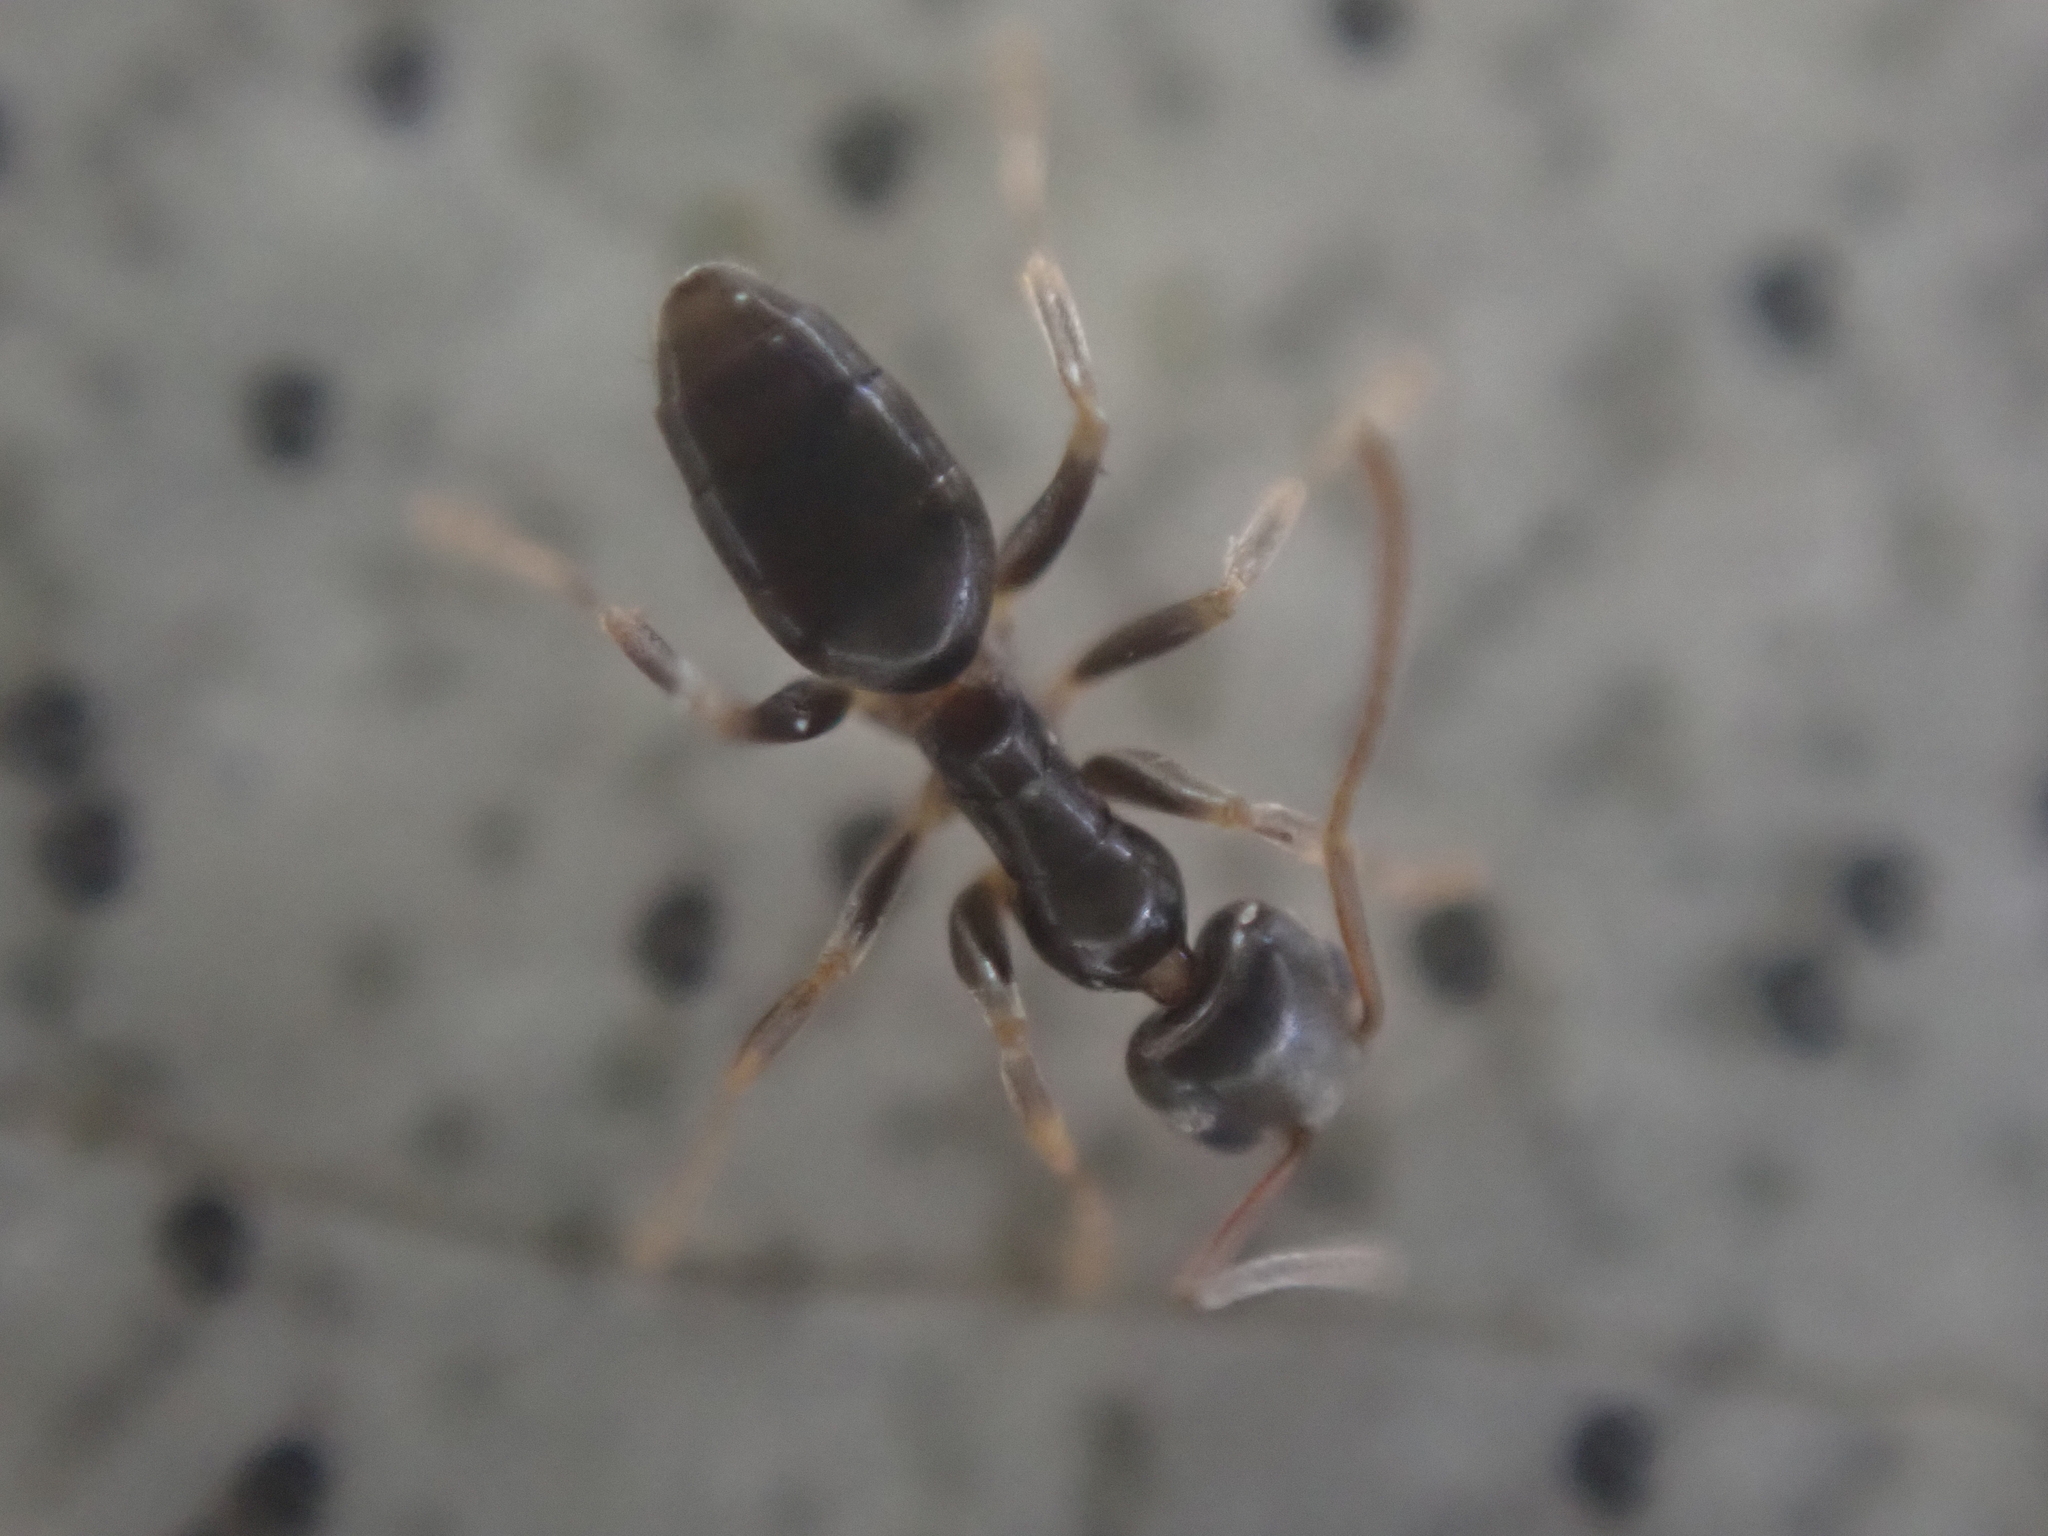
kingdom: Animalia
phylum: Arthropoda
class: Insecta
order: Hymenoptera
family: Formicidae
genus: Tapinoma
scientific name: Tapinoma sessile
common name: Odorous house ant
